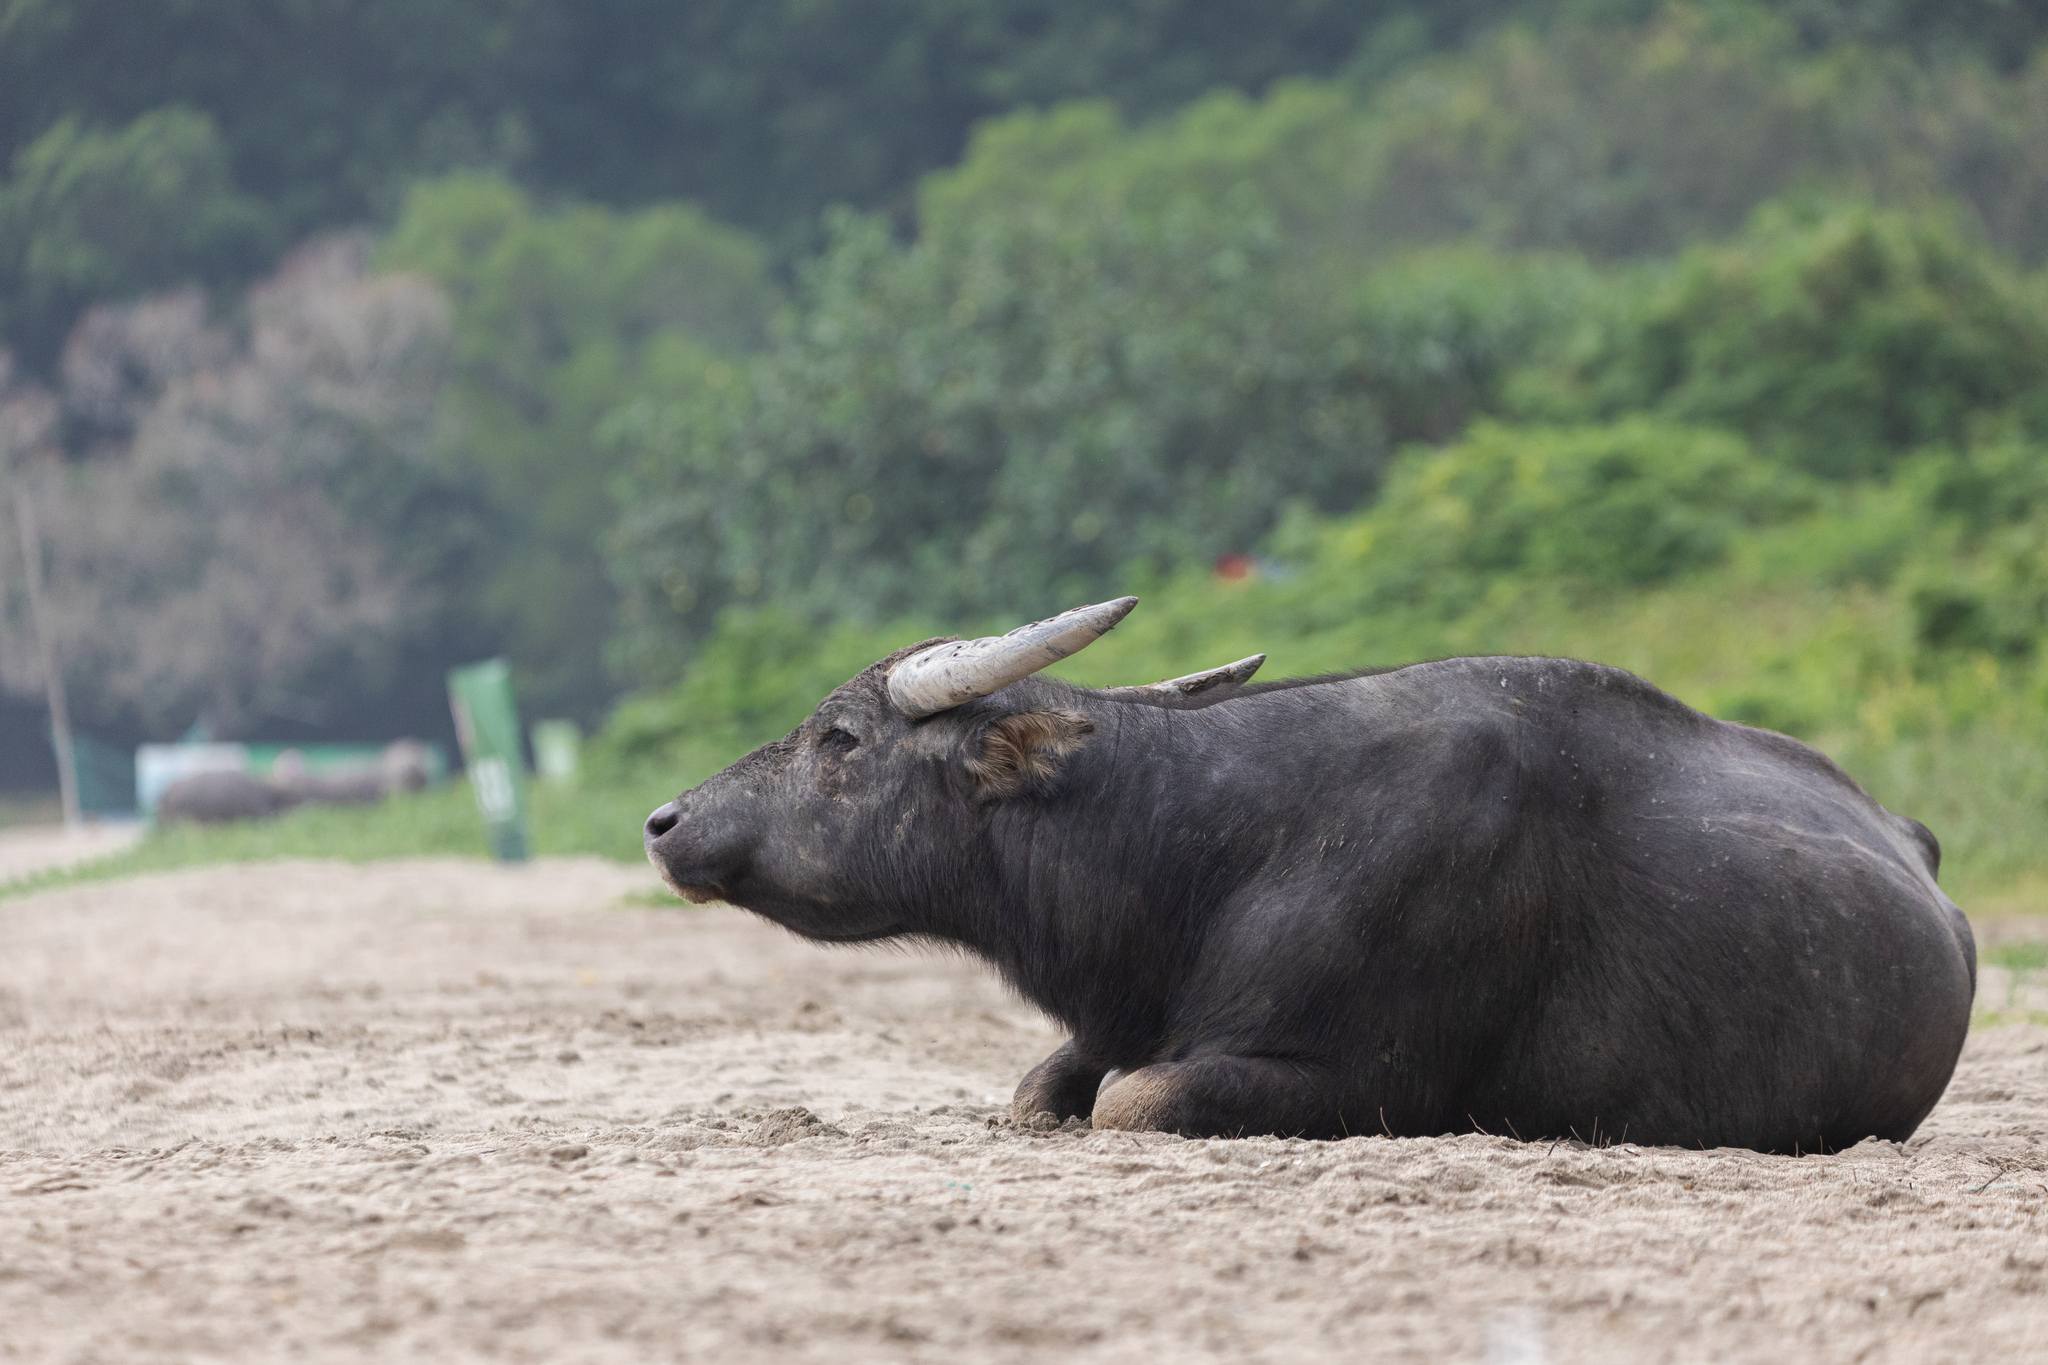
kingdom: Animalia
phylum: Chordata
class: Mammalia
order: Artiodactyla
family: Bovidae
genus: Bubalus
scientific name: Bubalus bubalis
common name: Water buffalo
